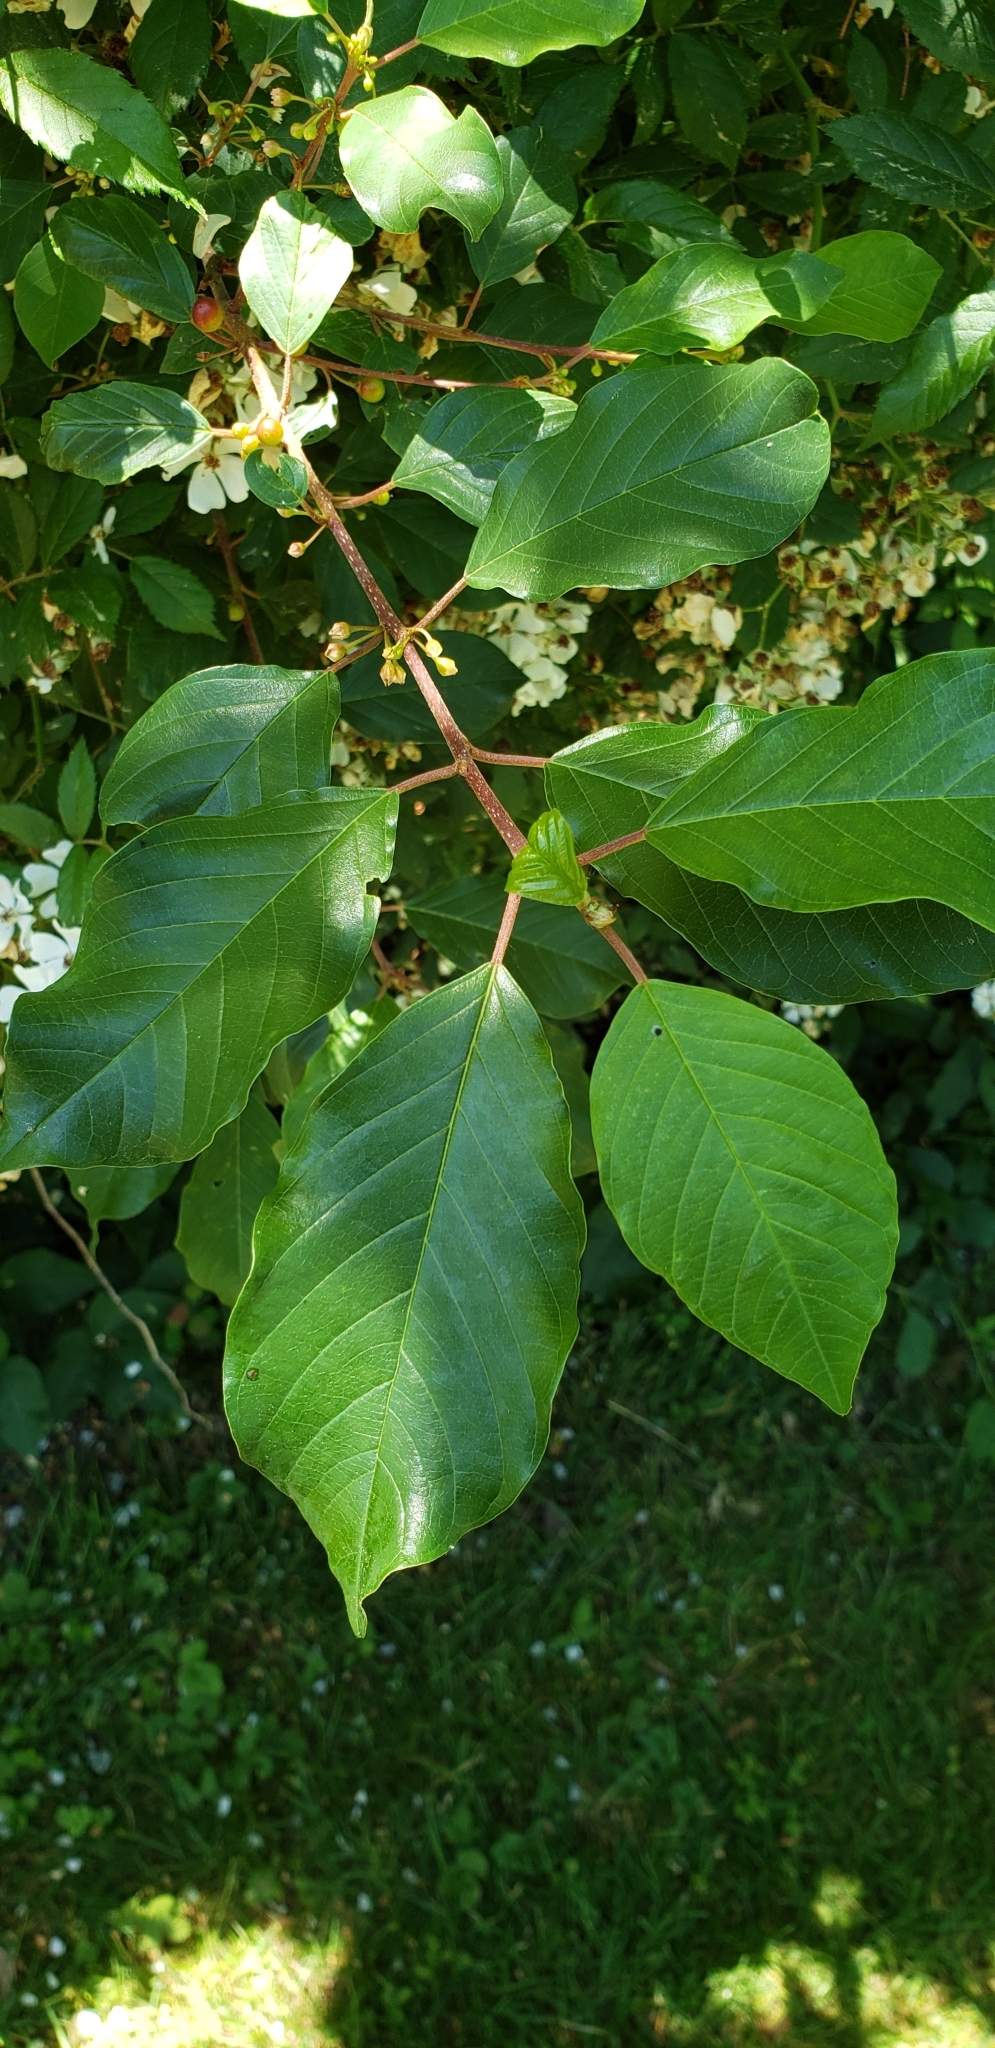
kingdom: Plantae
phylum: Tracheophyta
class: Magnoliopsida
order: Rosales
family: Rhamnaceae
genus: Frangula
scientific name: Frangula alnus
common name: Alder buckthorn
